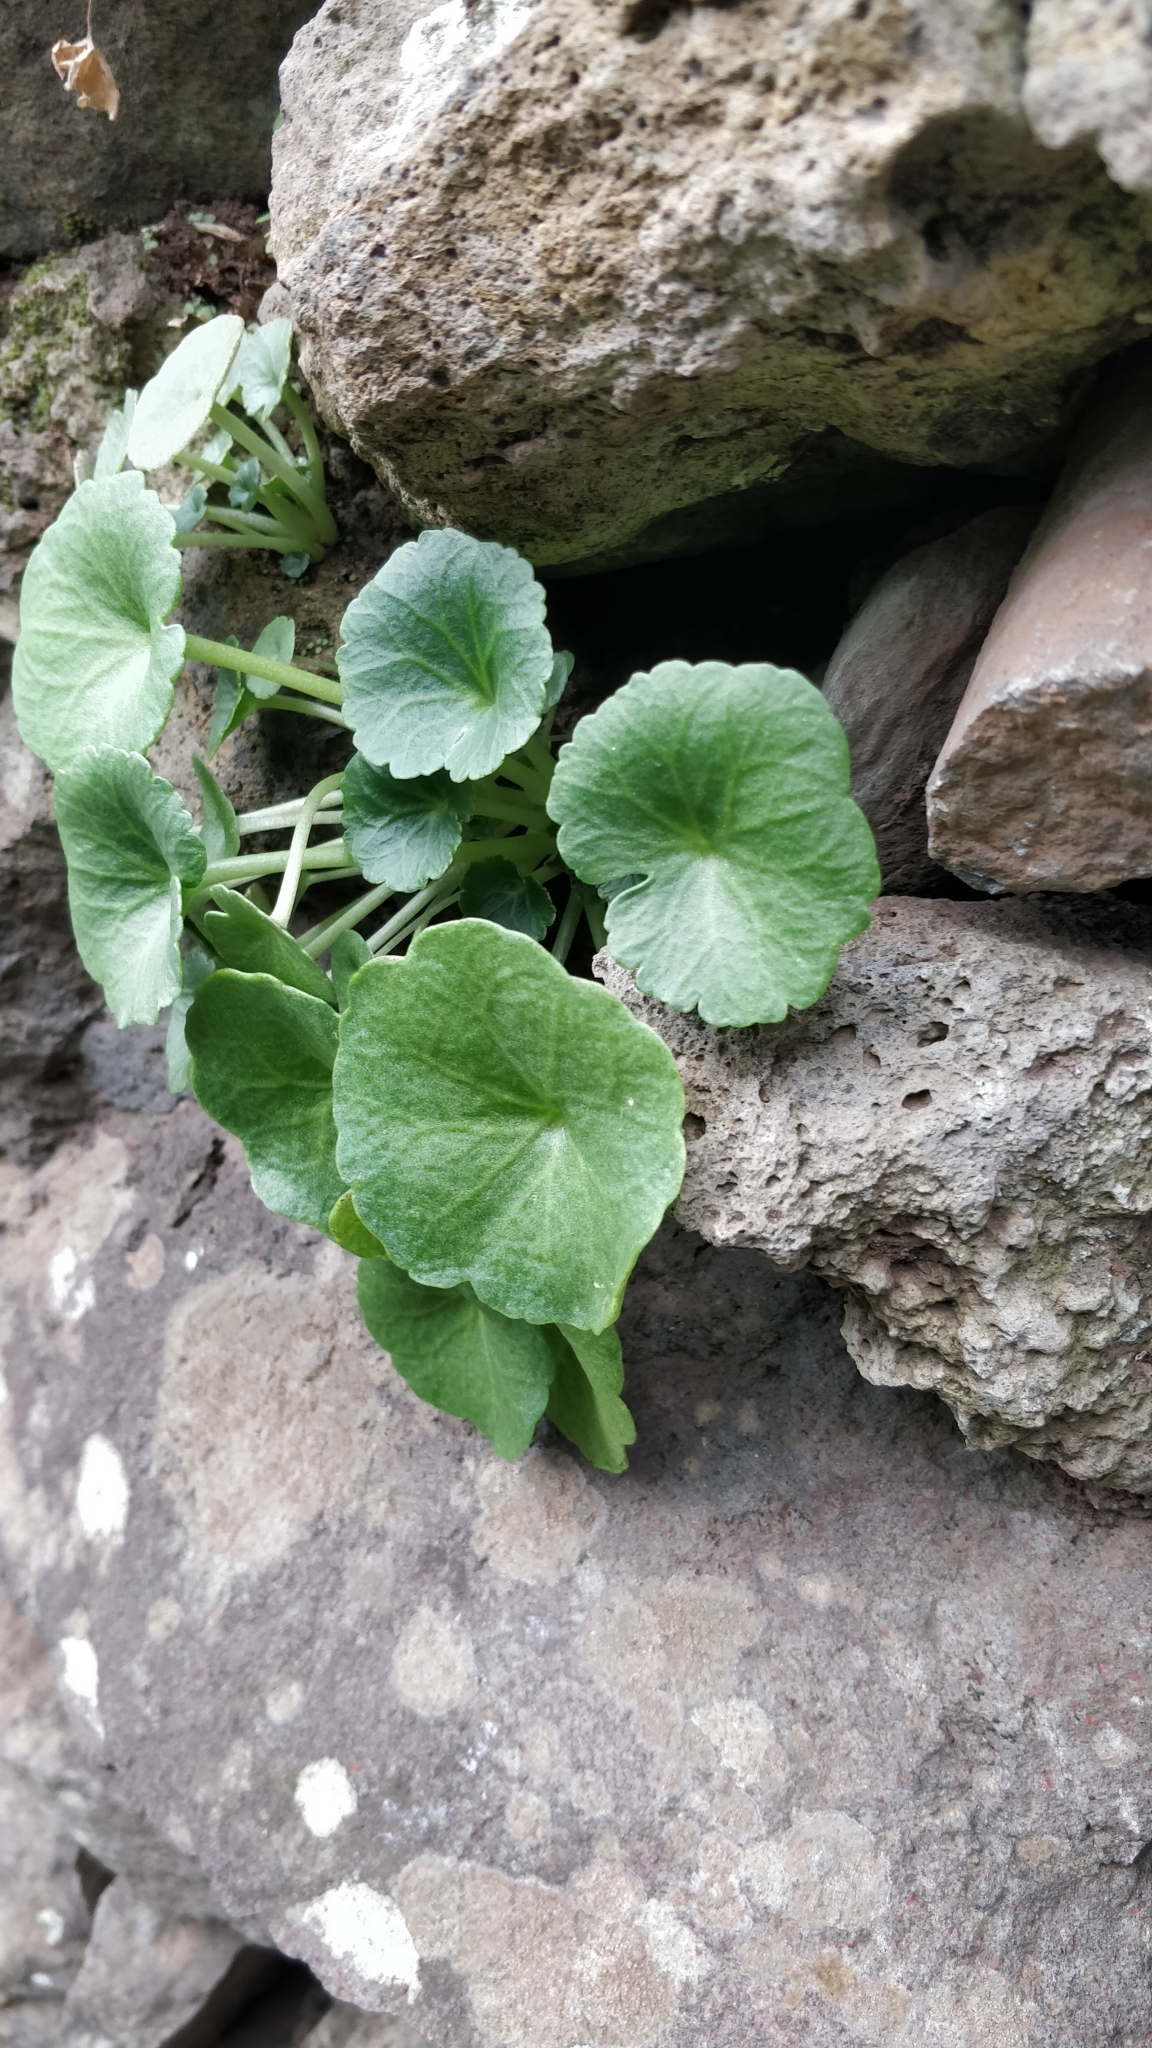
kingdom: Plantae
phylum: Tracheophyta
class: Magnoliopsida
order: Saxifragales
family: Crassulaceae
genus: Umbilicus
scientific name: Umbilicus rupestris
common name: Navelwort
